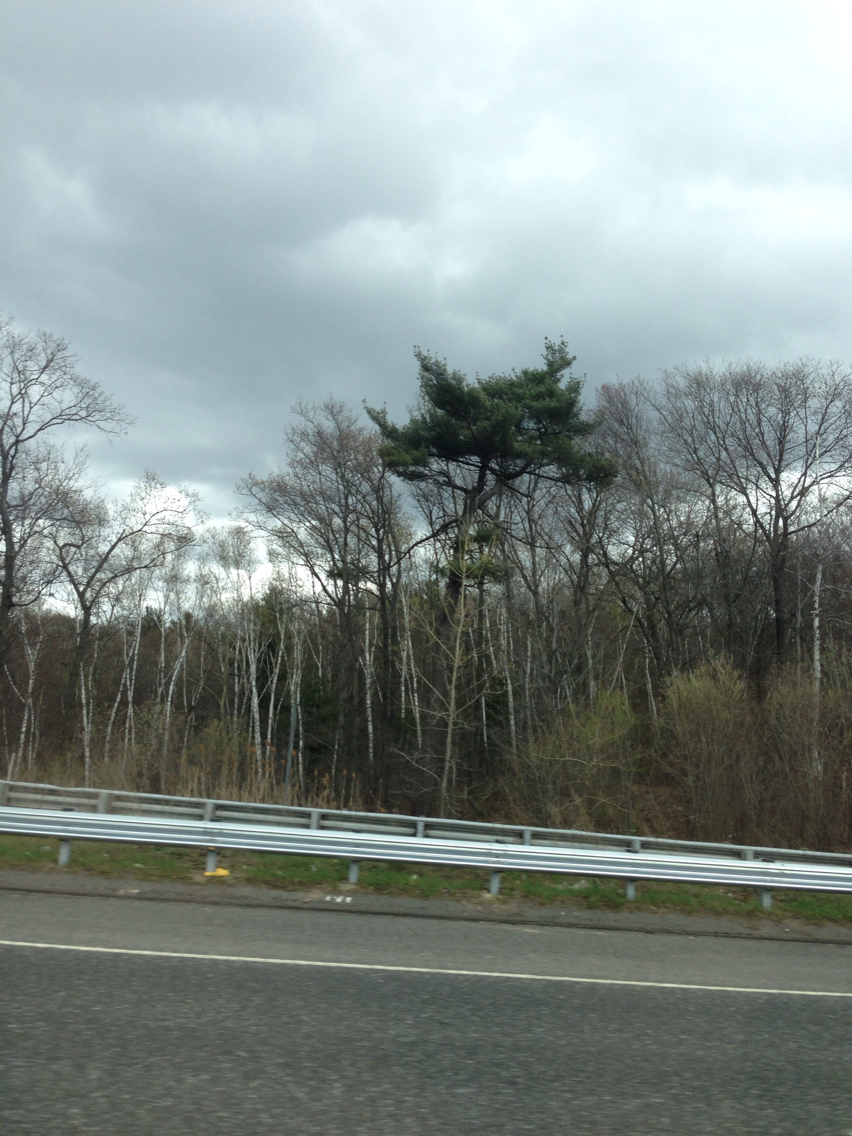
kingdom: Plantae
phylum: Tracheophyta
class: Pinopsida
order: Pinales
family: Pinaceae
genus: Pinus
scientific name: Pinus strobus
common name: Weymouth pine
